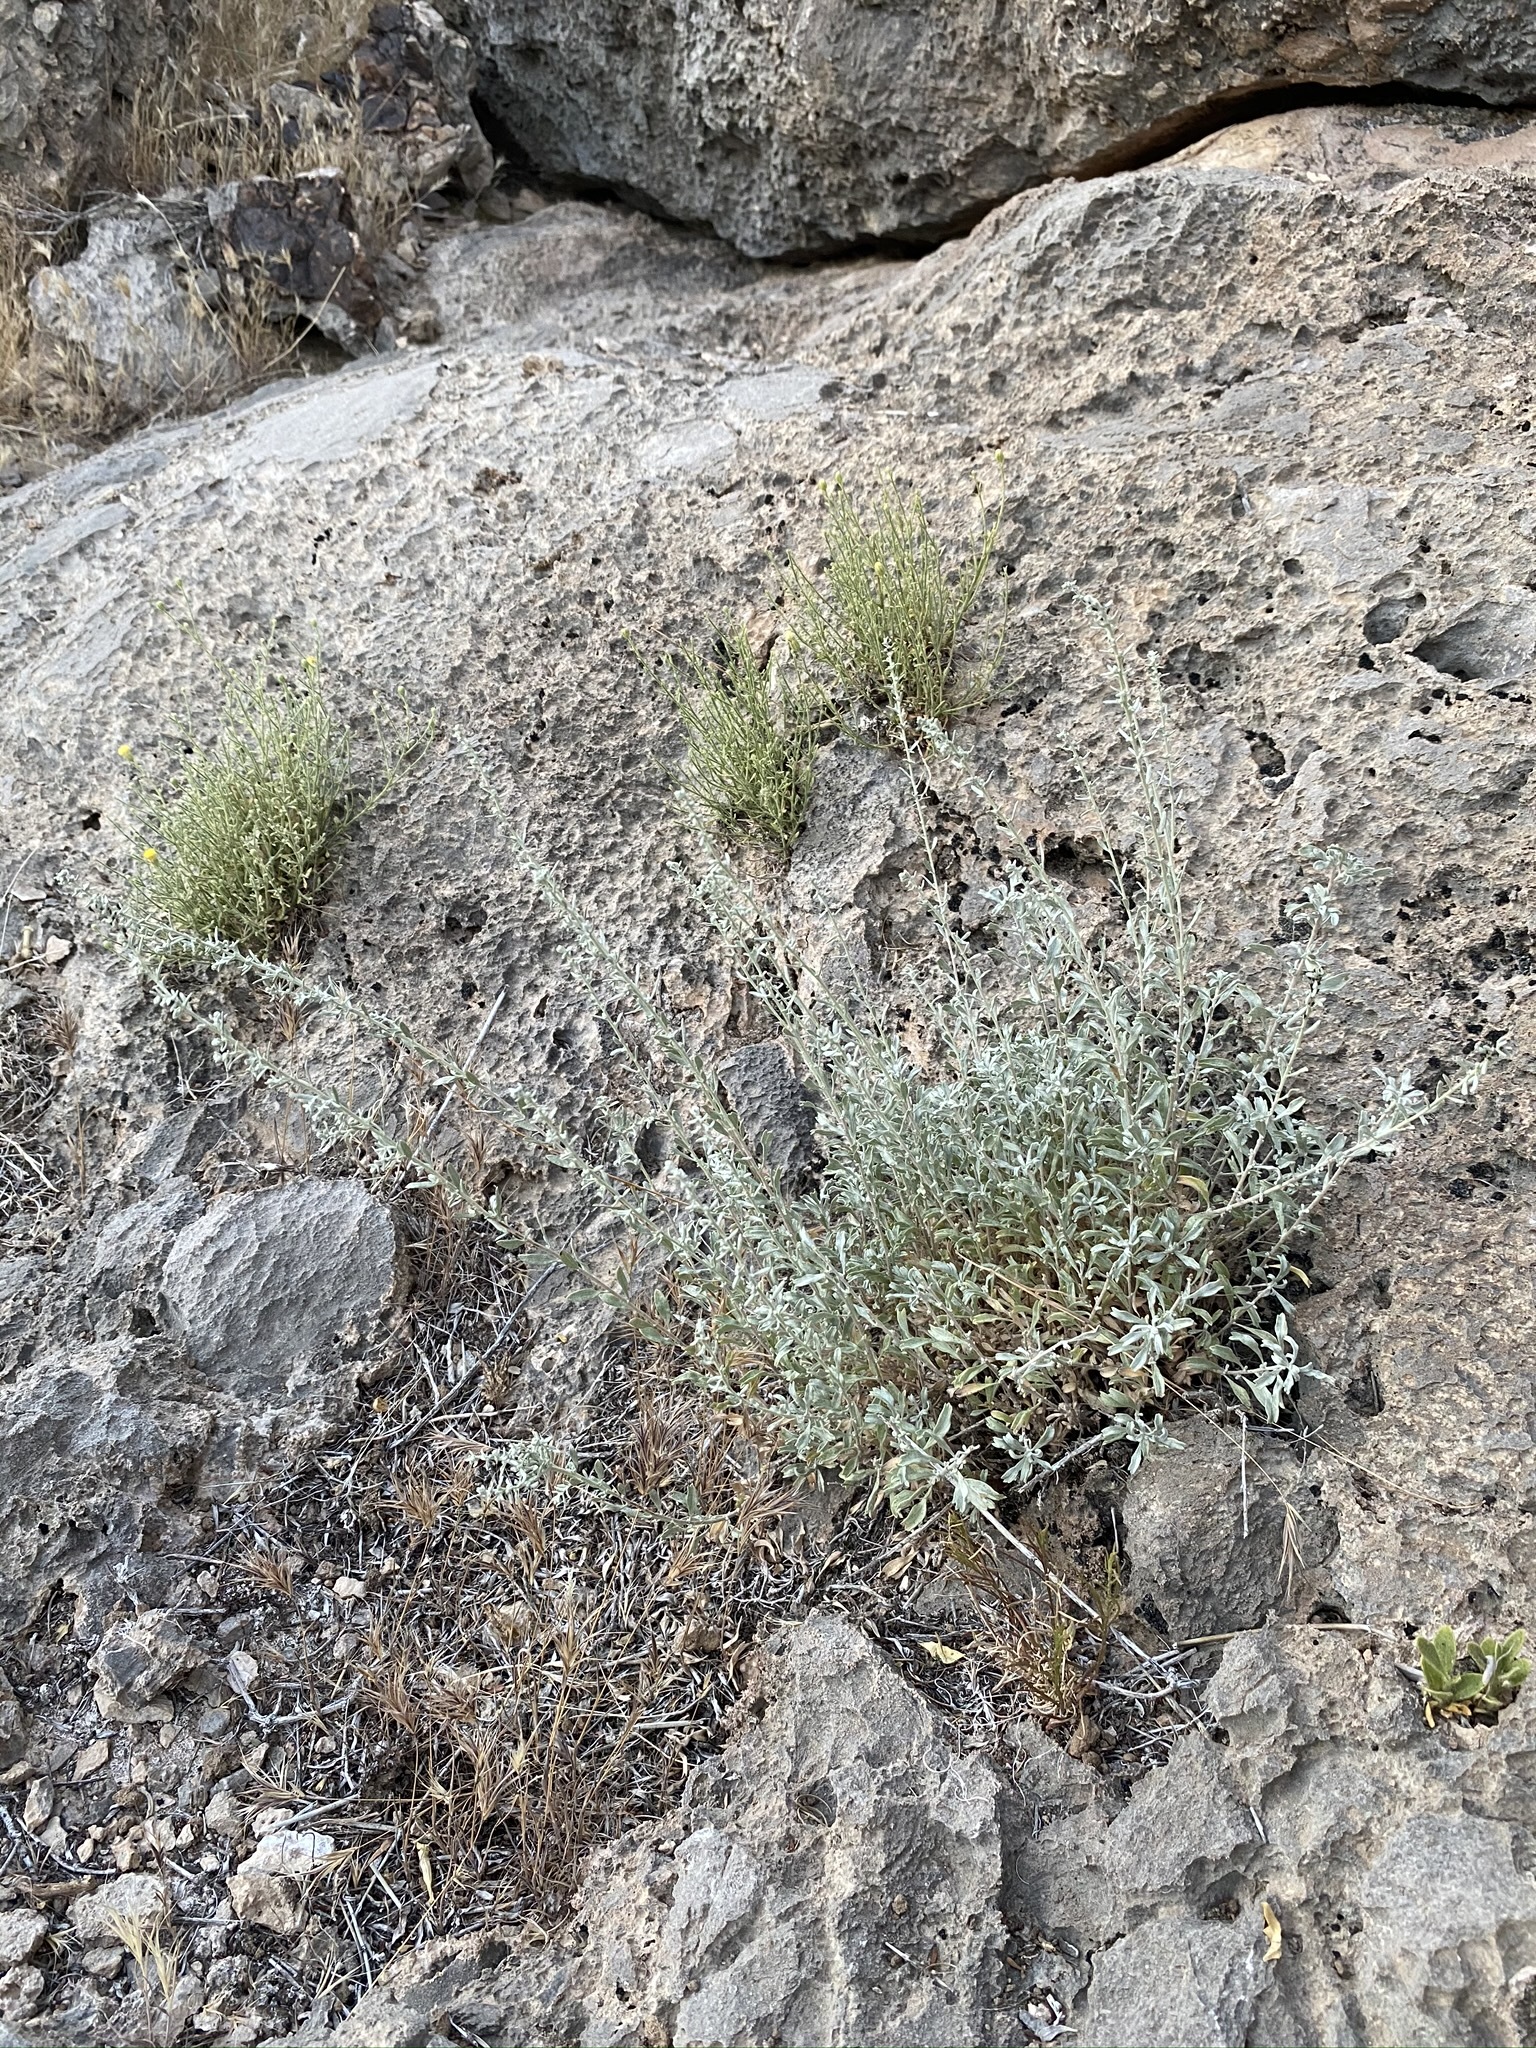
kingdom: Plantae
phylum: Tracheophyta
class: Magnoliopsida
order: Asterales
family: Asteraceae
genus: Artemisia
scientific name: Artemisia bigelovii
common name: Bigelow sagebrush
